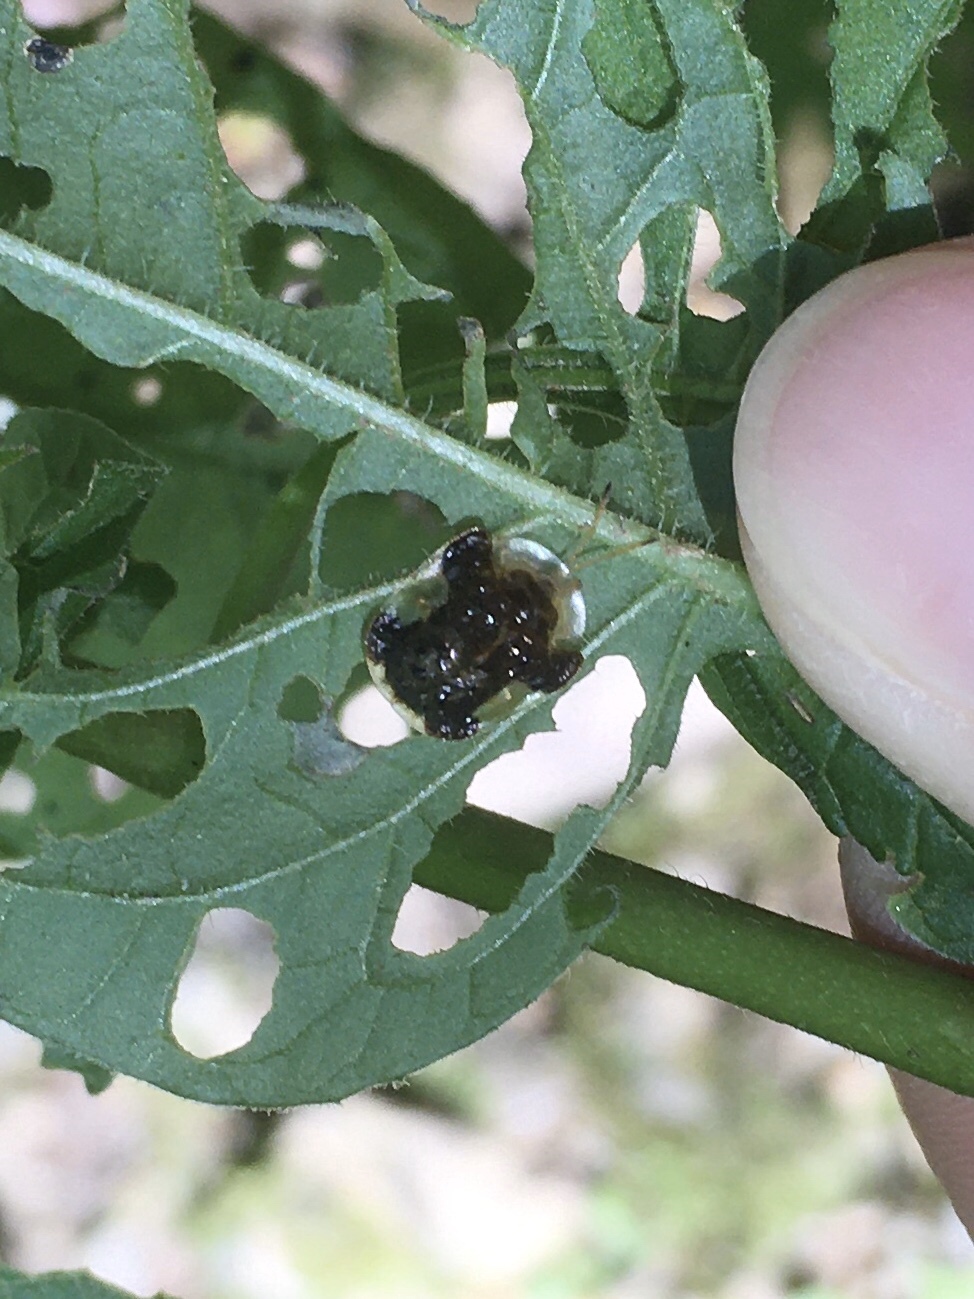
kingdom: Animalia
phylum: Arthropoda
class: Insecta
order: Coleoptera
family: Chrysomelidae
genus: Helocassis
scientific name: Helocassis clavata
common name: Clavate tortoise beetle
